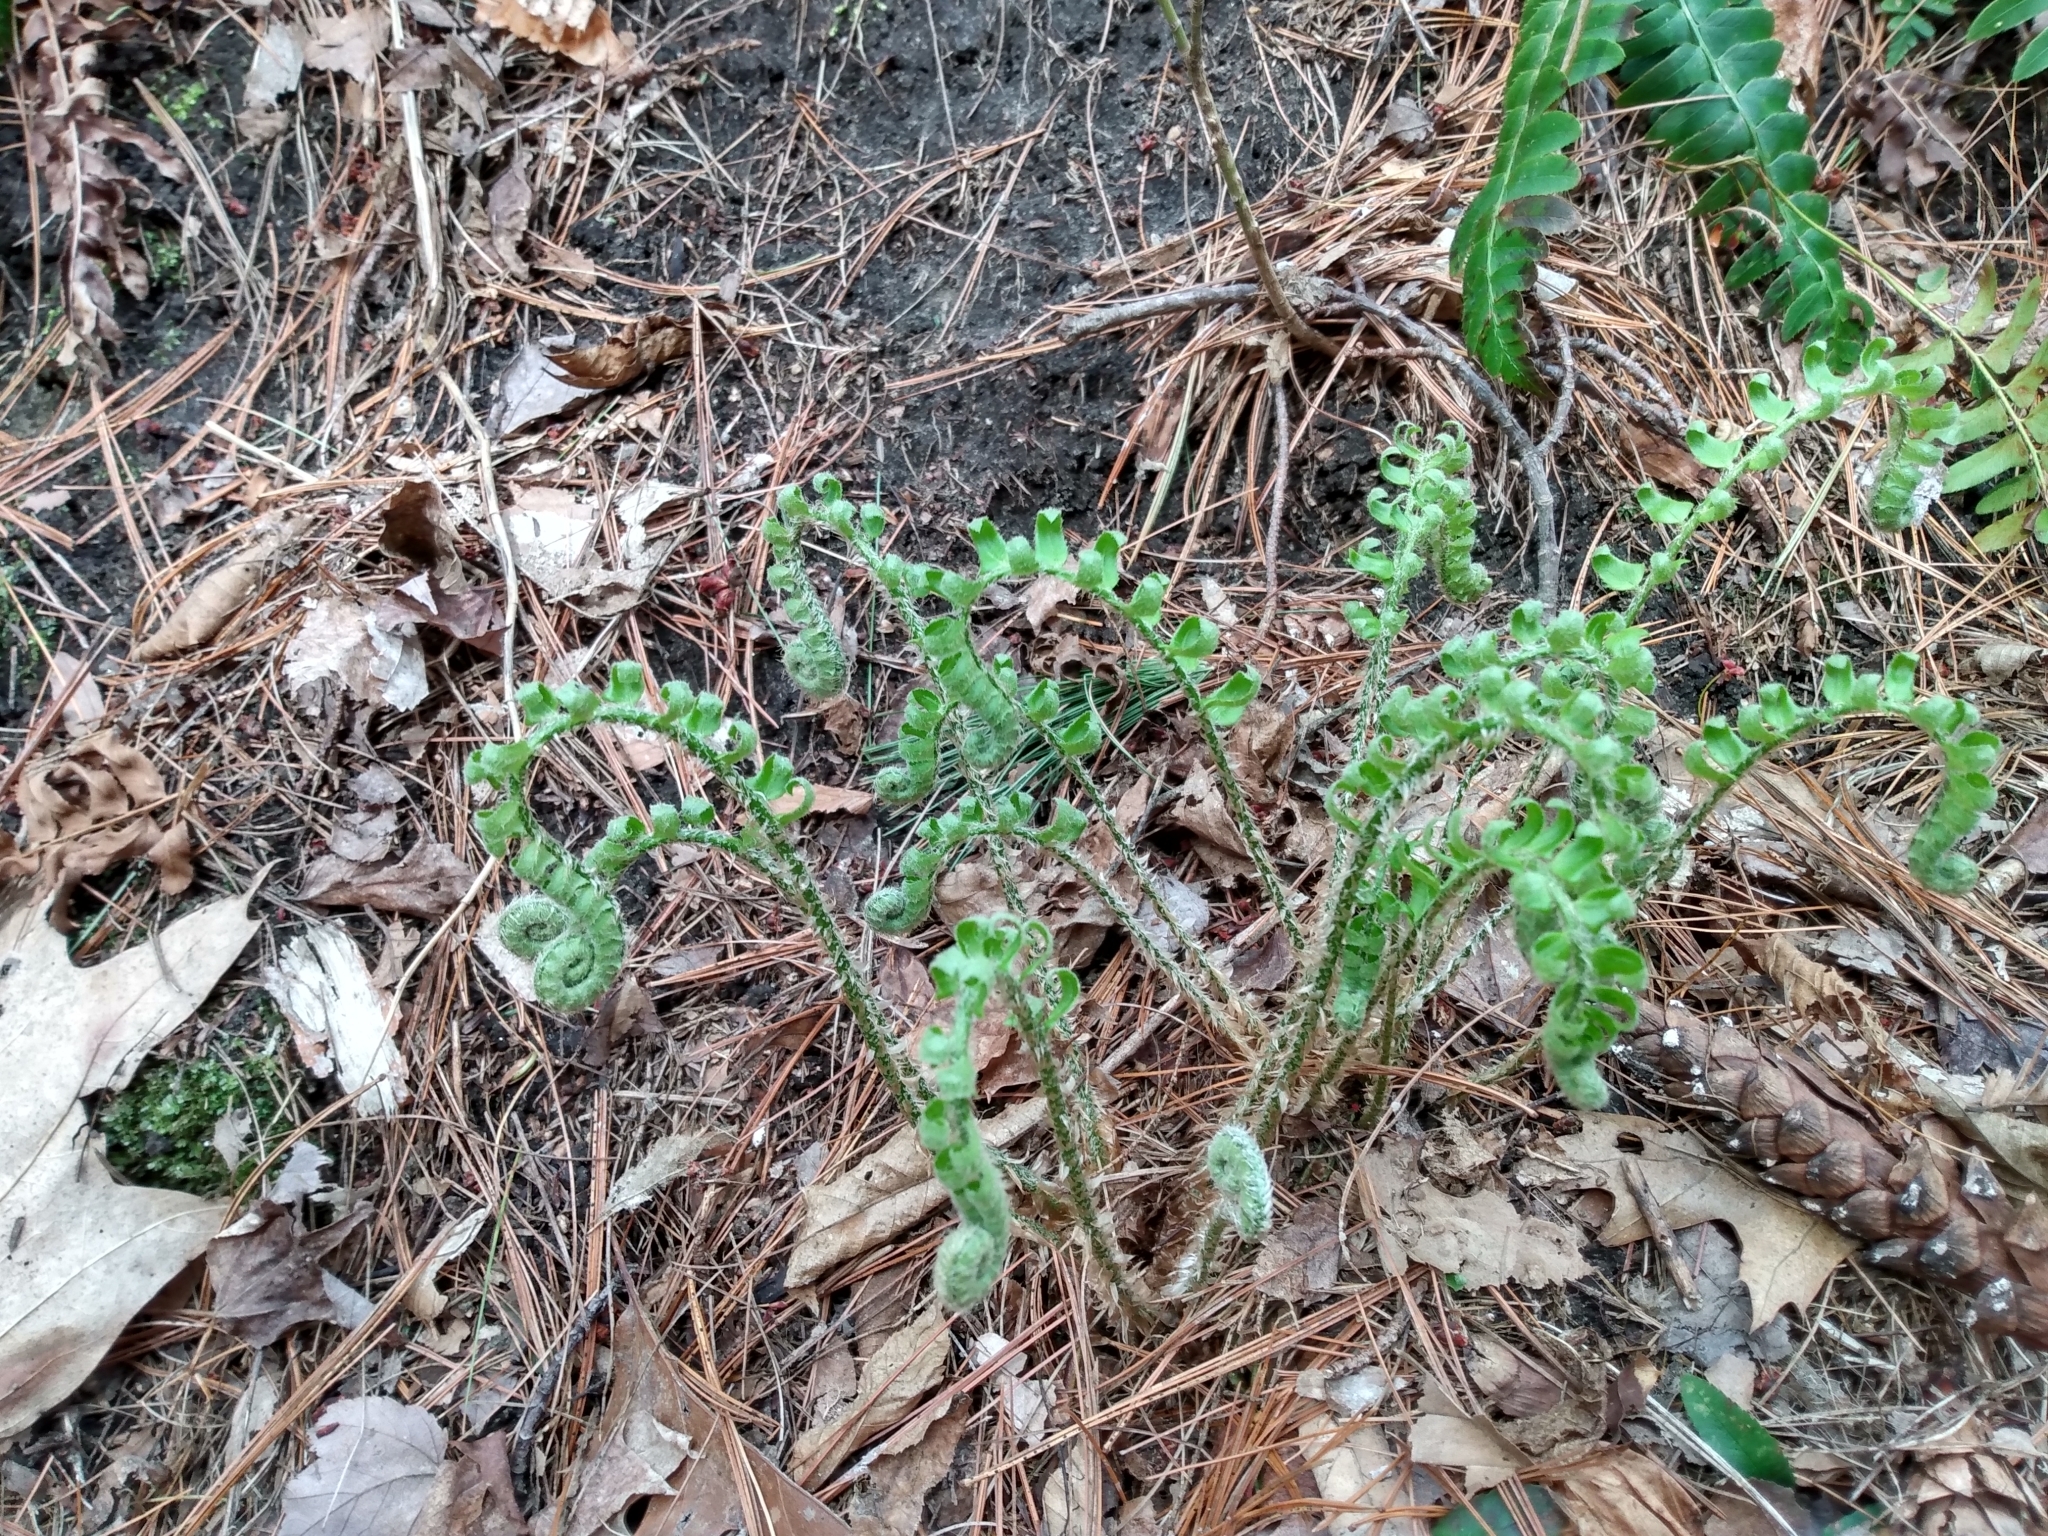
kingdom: Plantae
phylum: Tracheophyta
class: Polypodiopsida
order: Polypodiales
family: Dryopteridaceae
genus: Polystichum
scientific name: Polystichum acrostichoides
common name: Christmas fern
